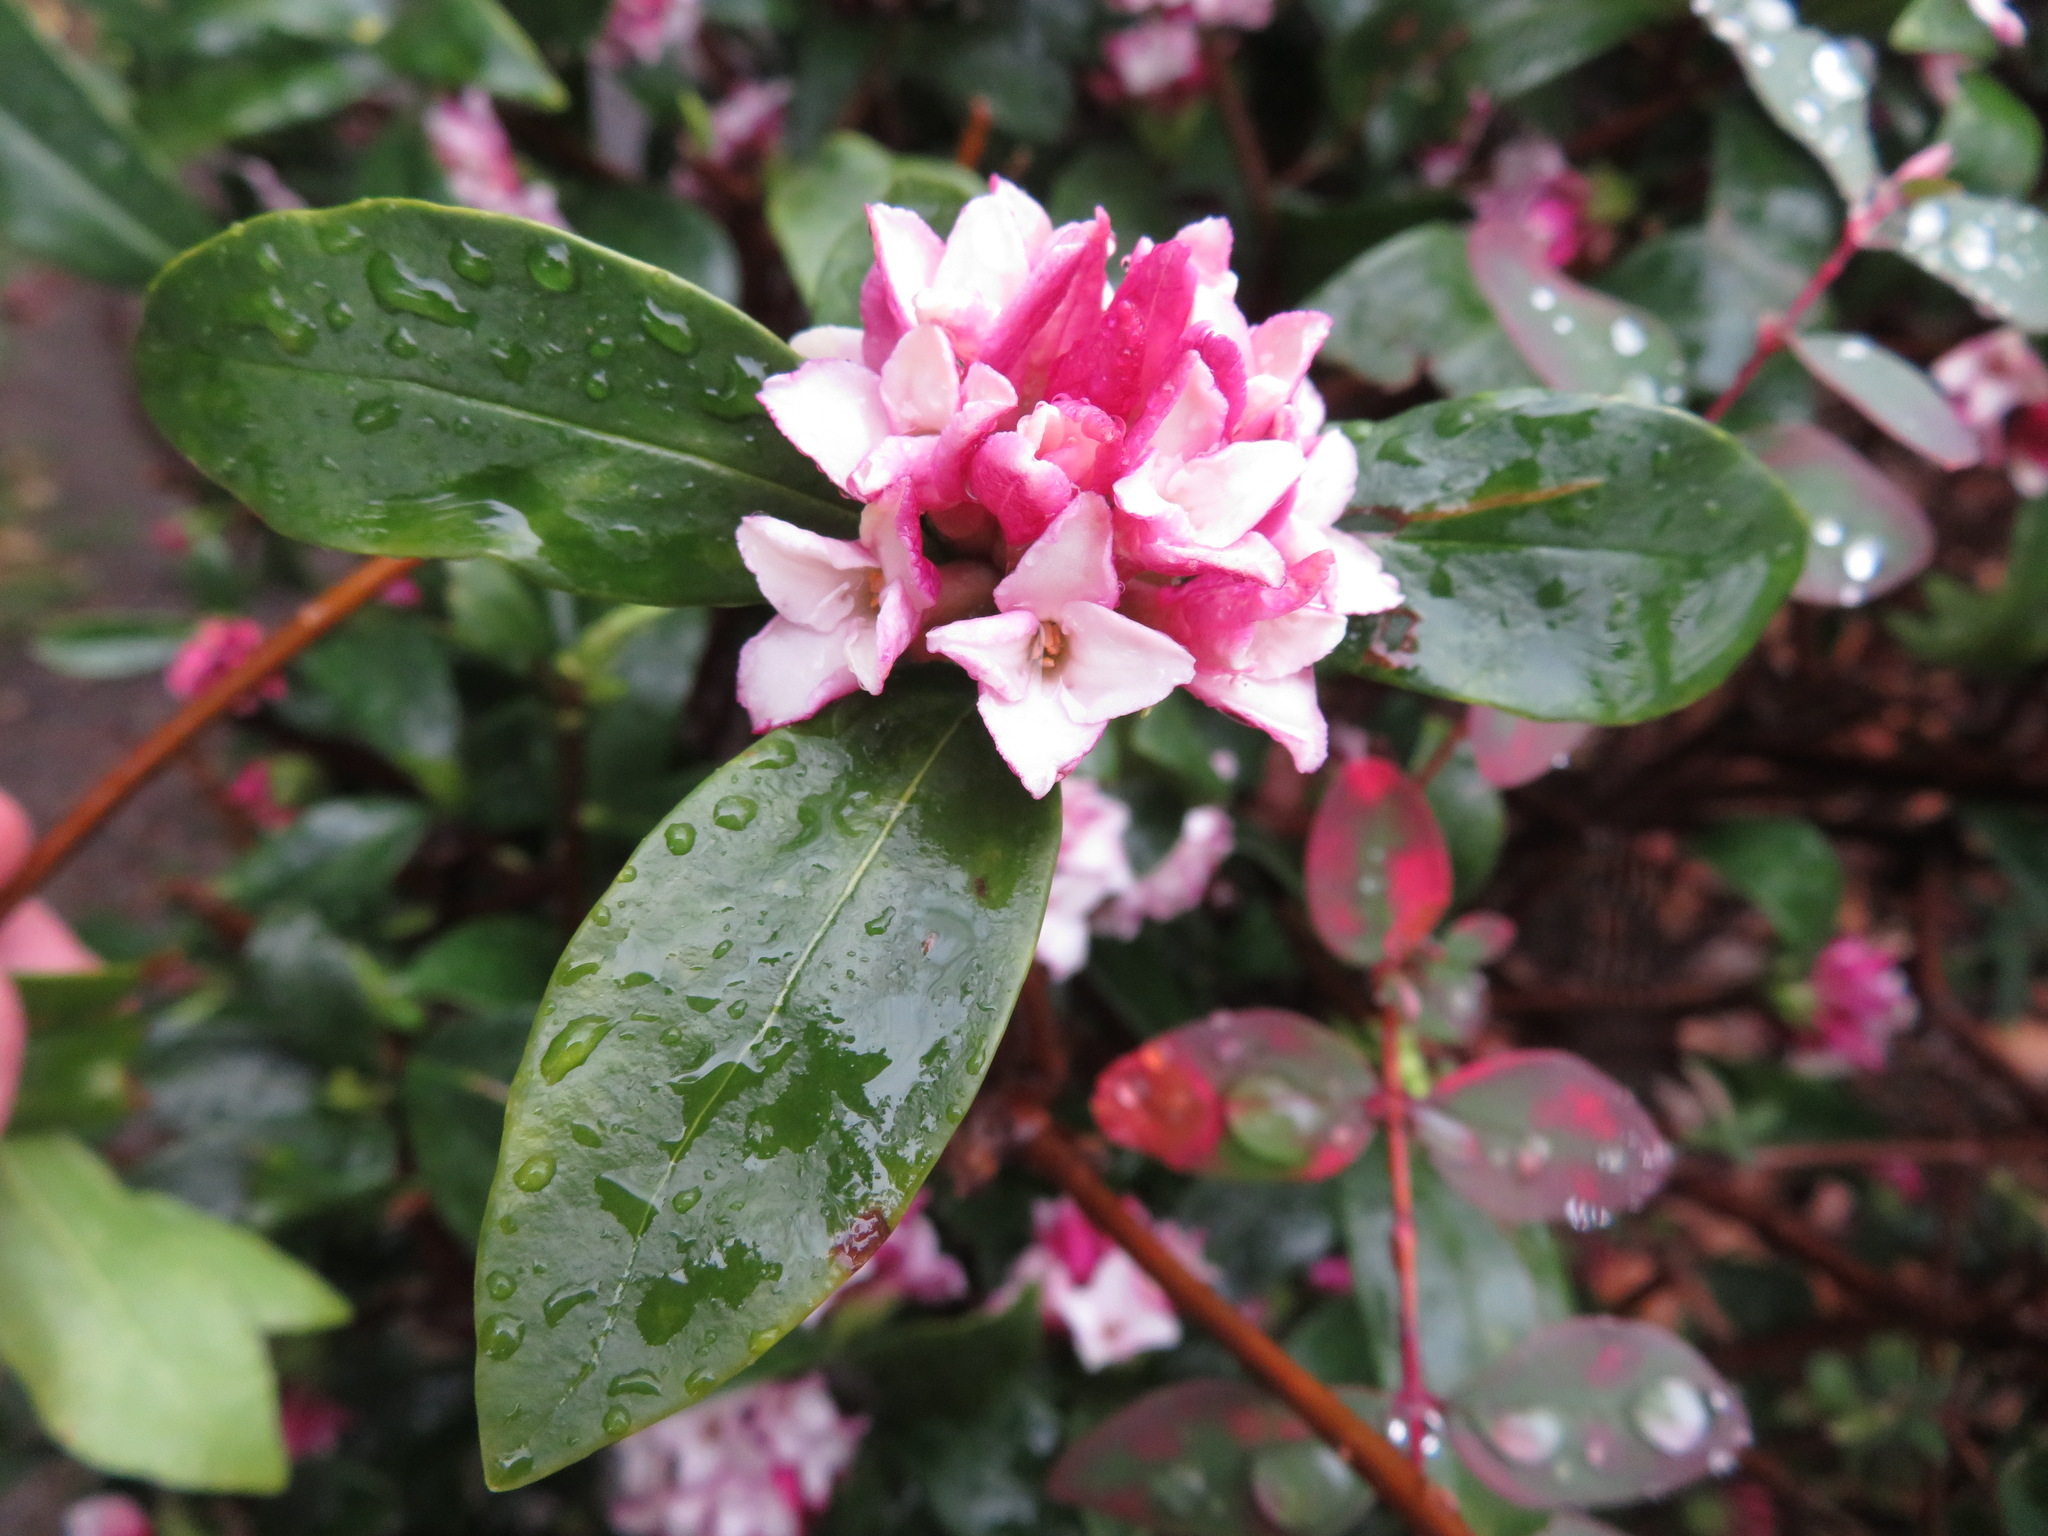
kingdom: Plantae
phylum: Tracheophyta
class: Magnoliopsida
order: Malvales
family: Thymelaeaceae
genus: Daphne
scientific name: Daphne odora
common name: Winter daphne
